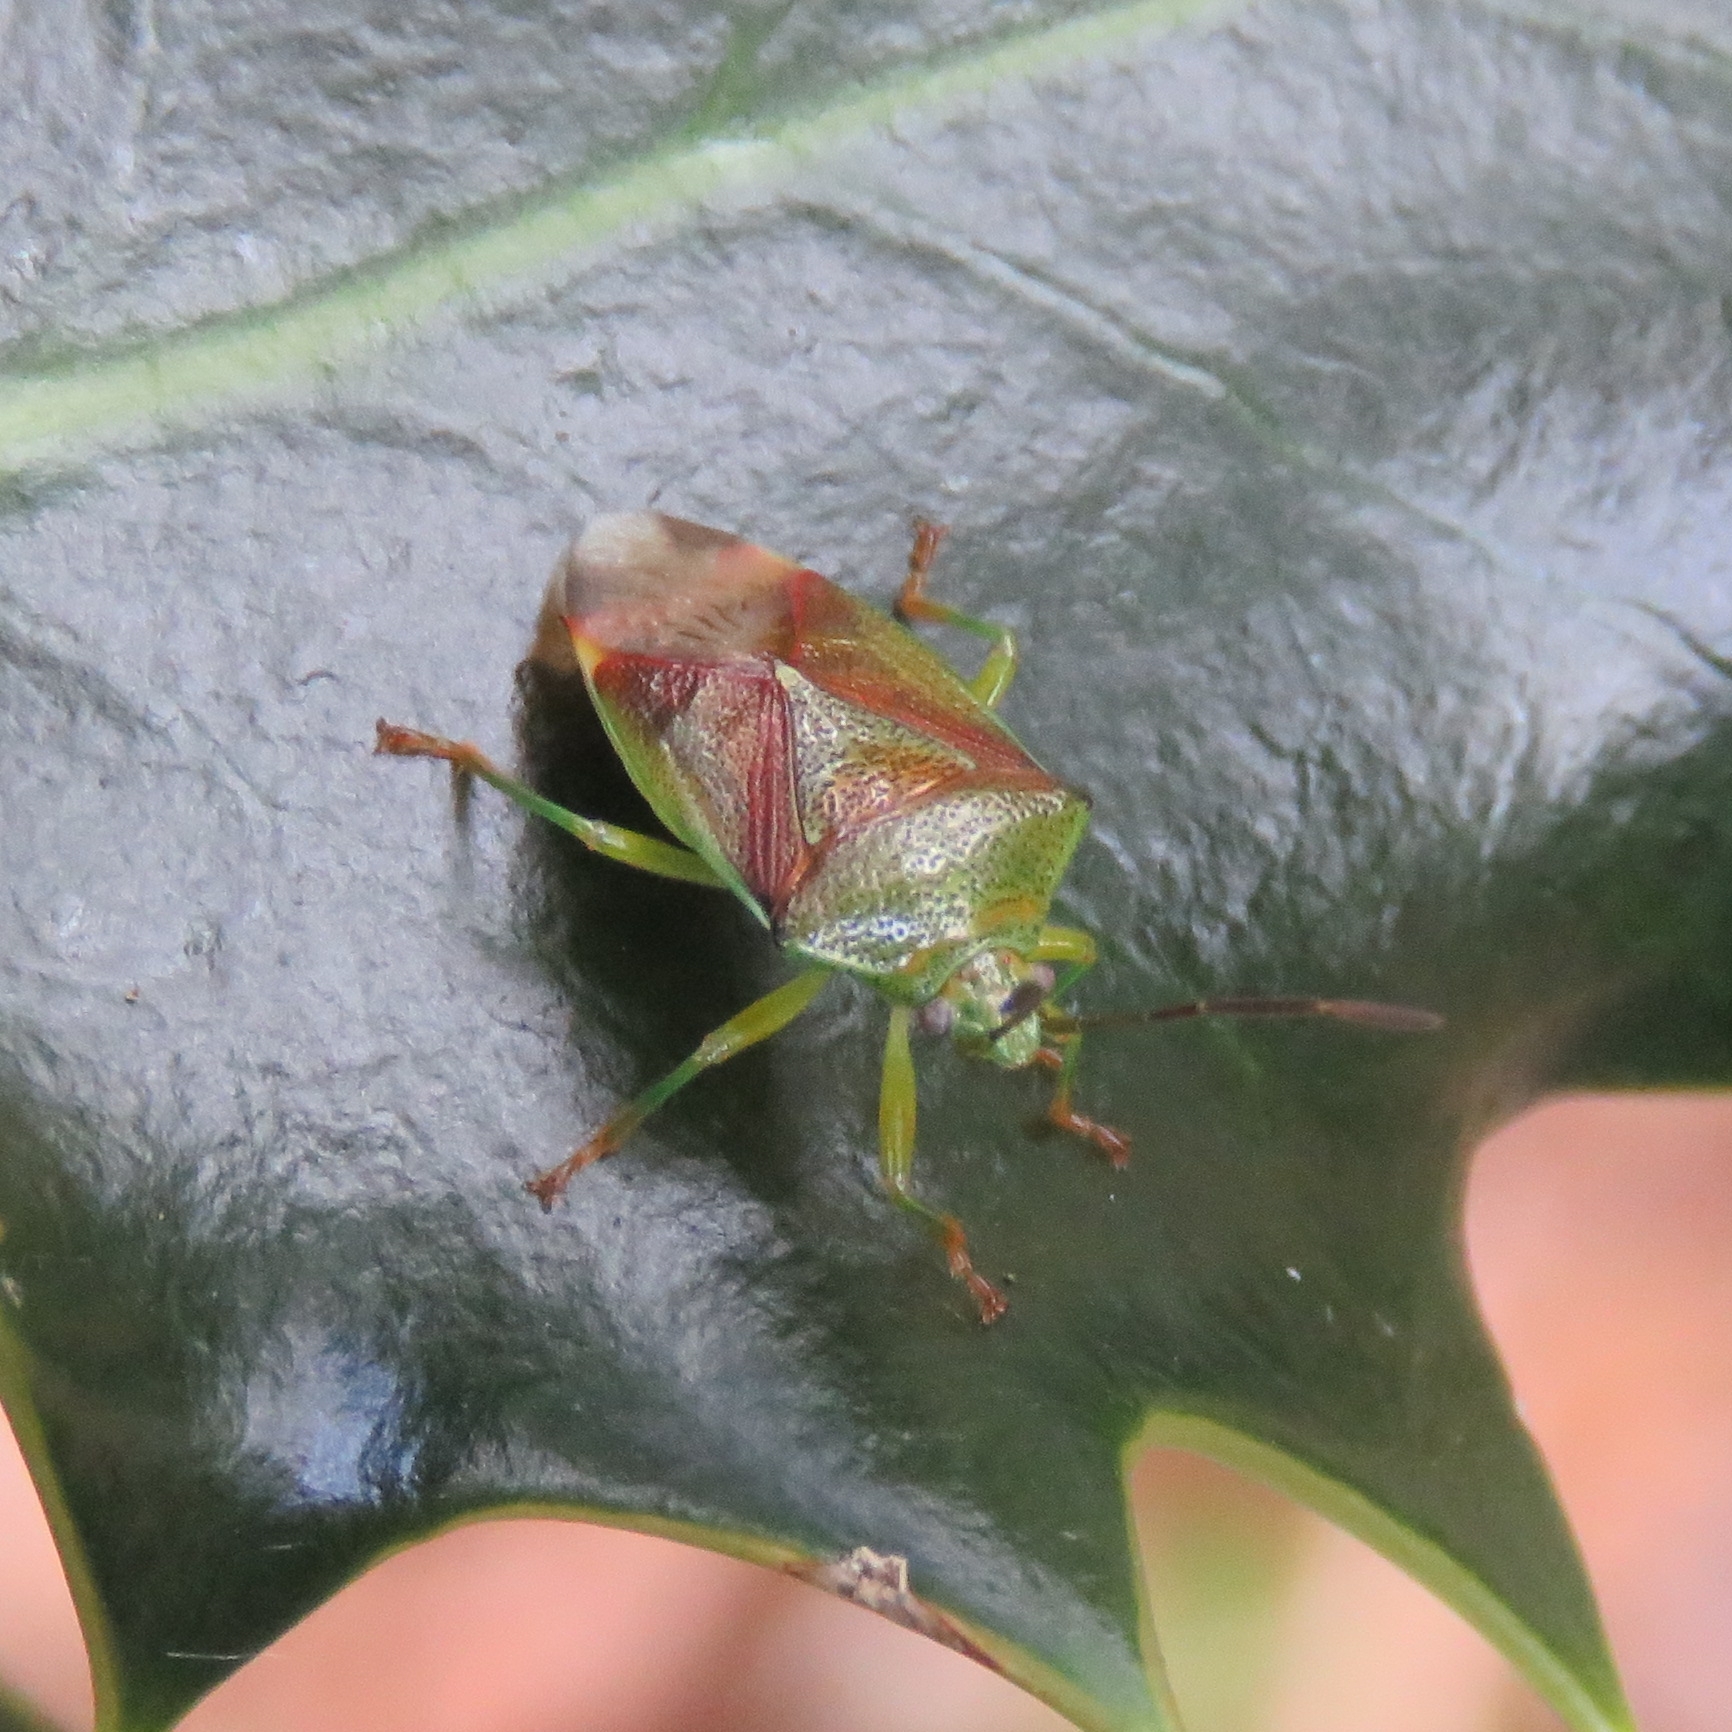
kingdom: Animalia
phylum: Arthropoda
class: Insecta
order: Hemiptera
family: Acanthosomatidae
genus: Elasmostethus
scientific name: Elasmostethus interstinctus
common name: Birch shieldbug
